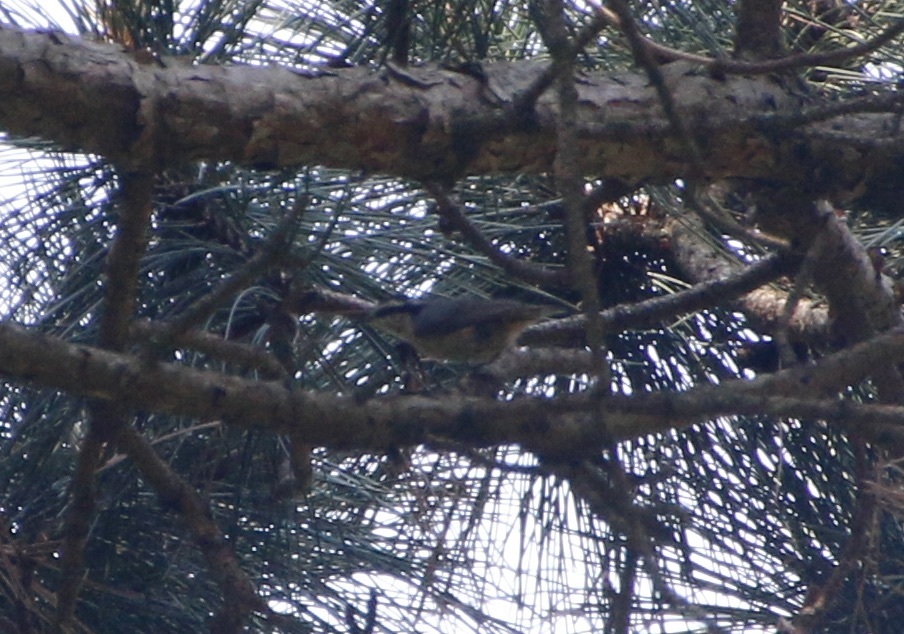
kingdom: Animalia
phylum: Chordata
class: Aves
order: Passeriformes
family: Sittidae
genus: Sitta
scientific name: Sitta canadensis
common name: Red-breasted nuthatch
